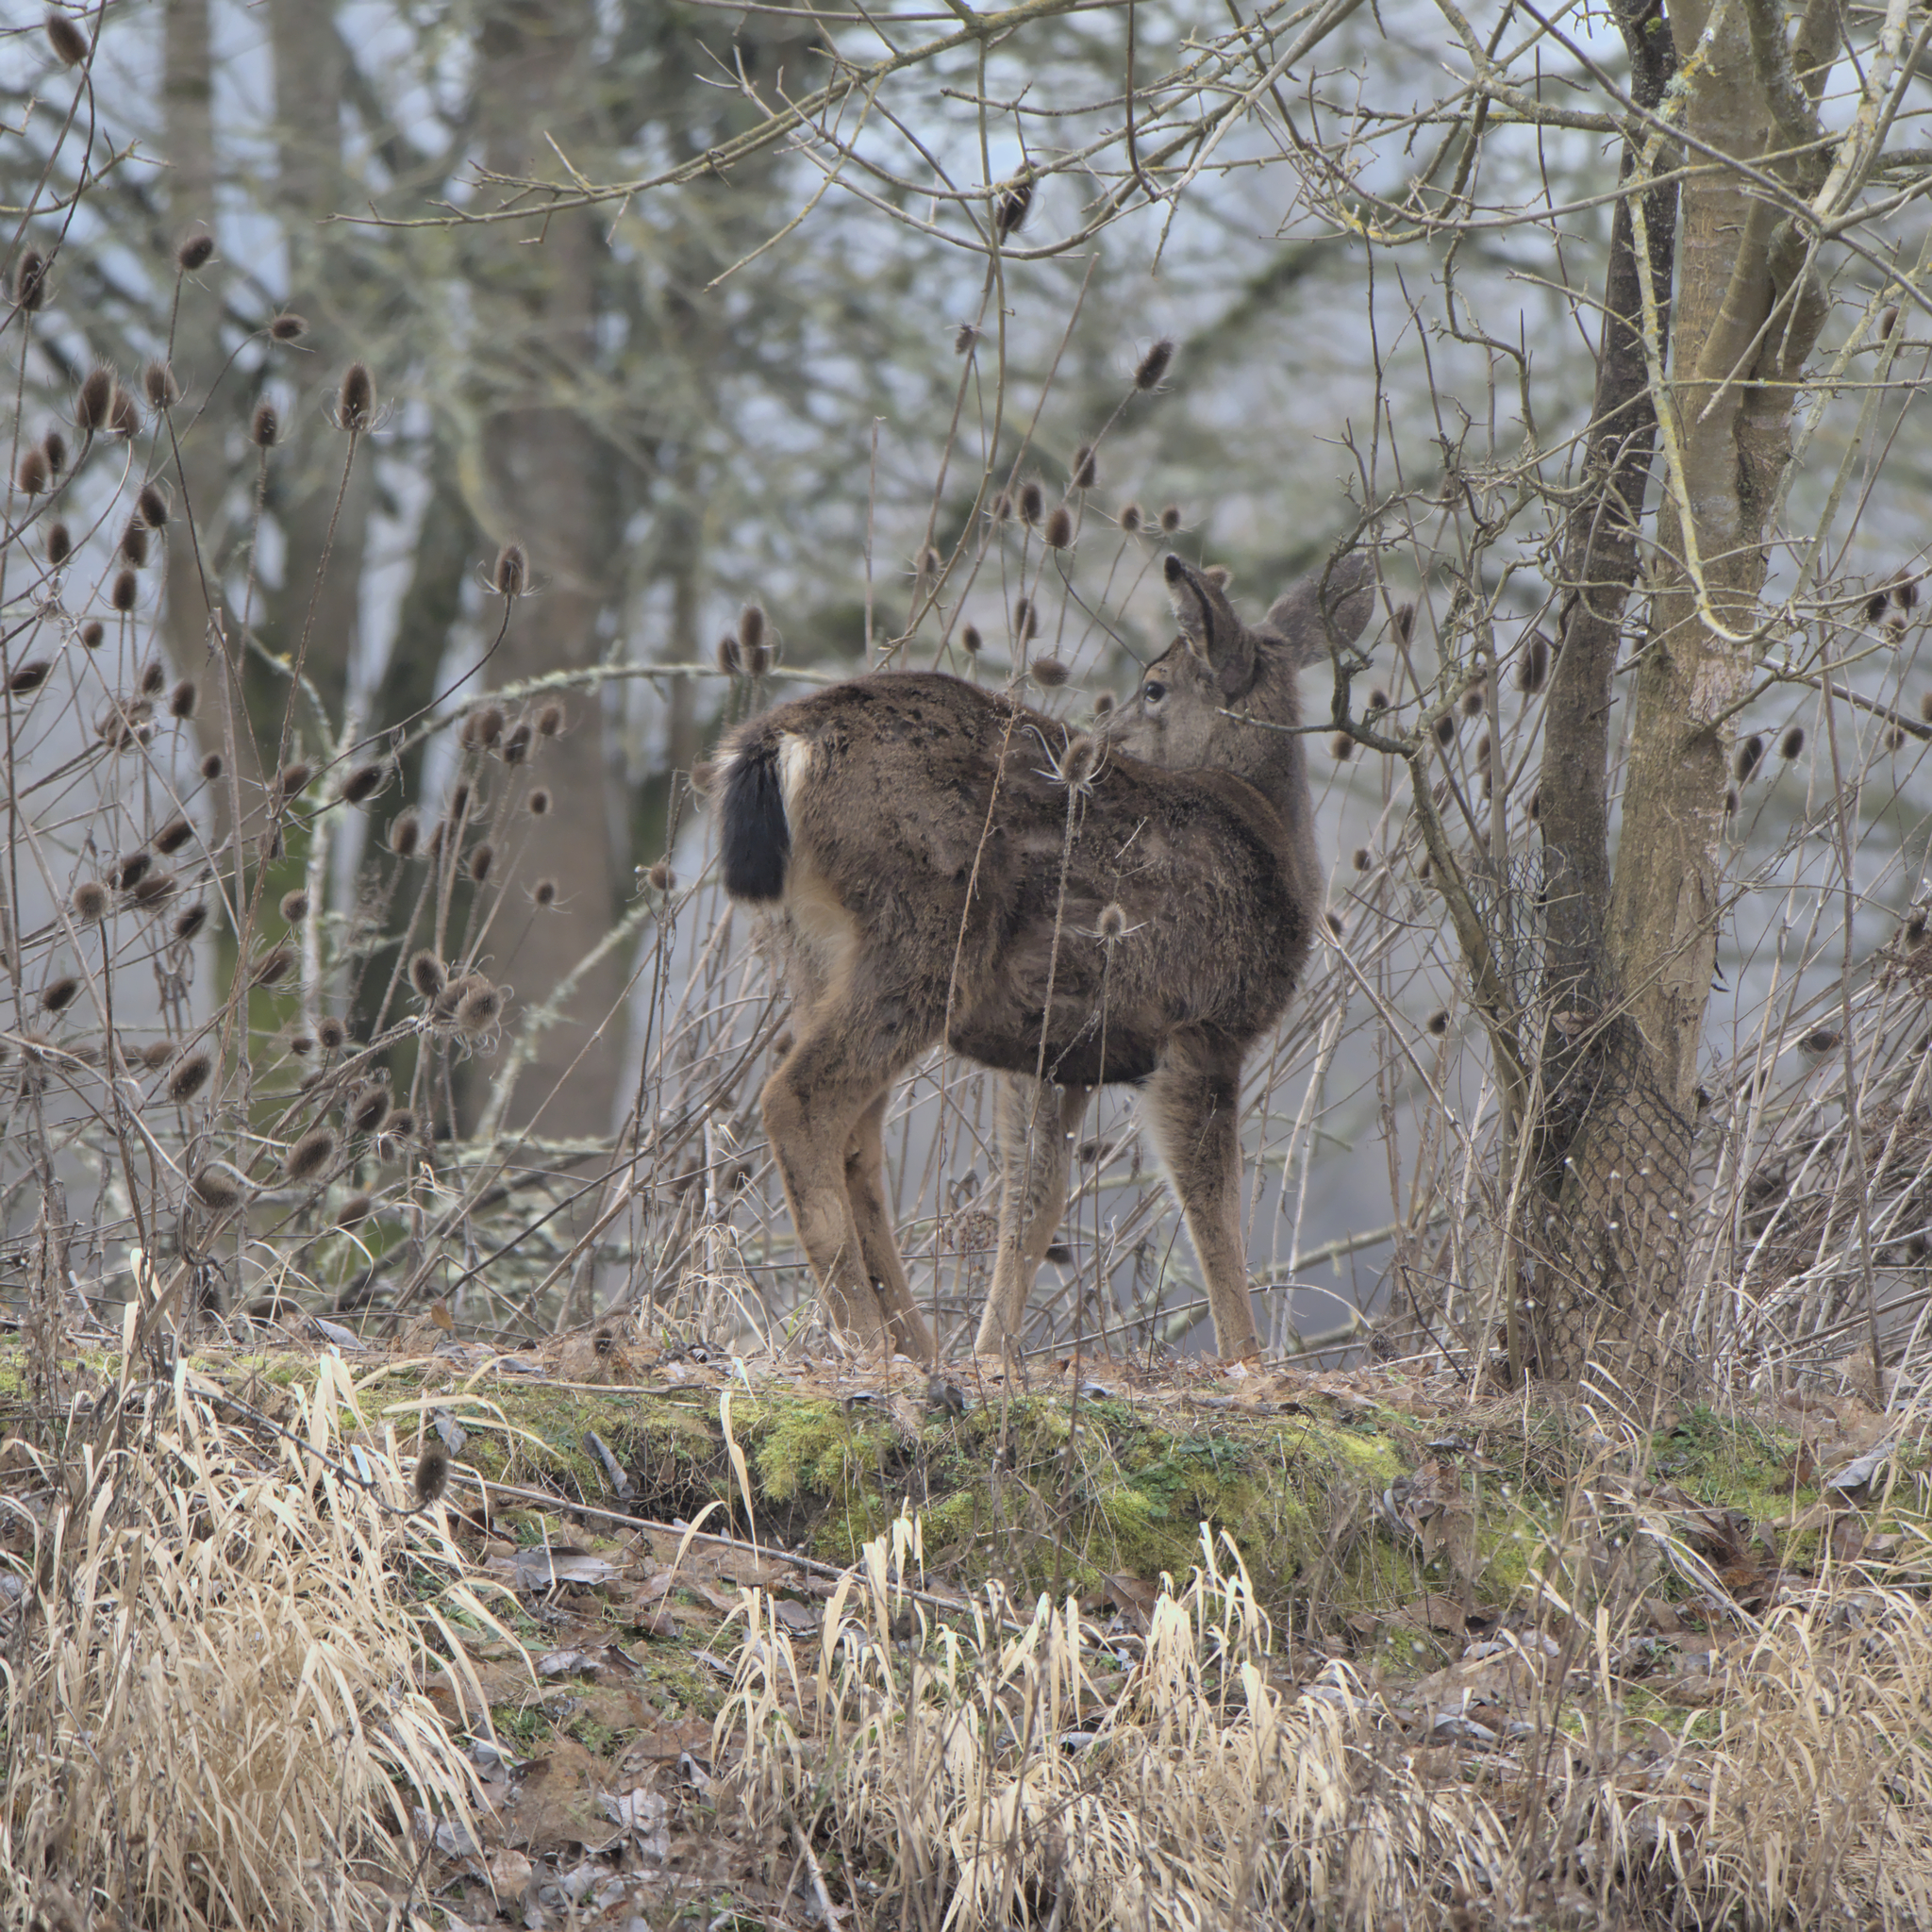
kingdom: Animalia
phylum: Chordata
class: Mammalia
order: Artiodactyla
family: Cervidae
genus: Odocoileus
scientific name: Odocoileus hemionus
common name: Mule deer
